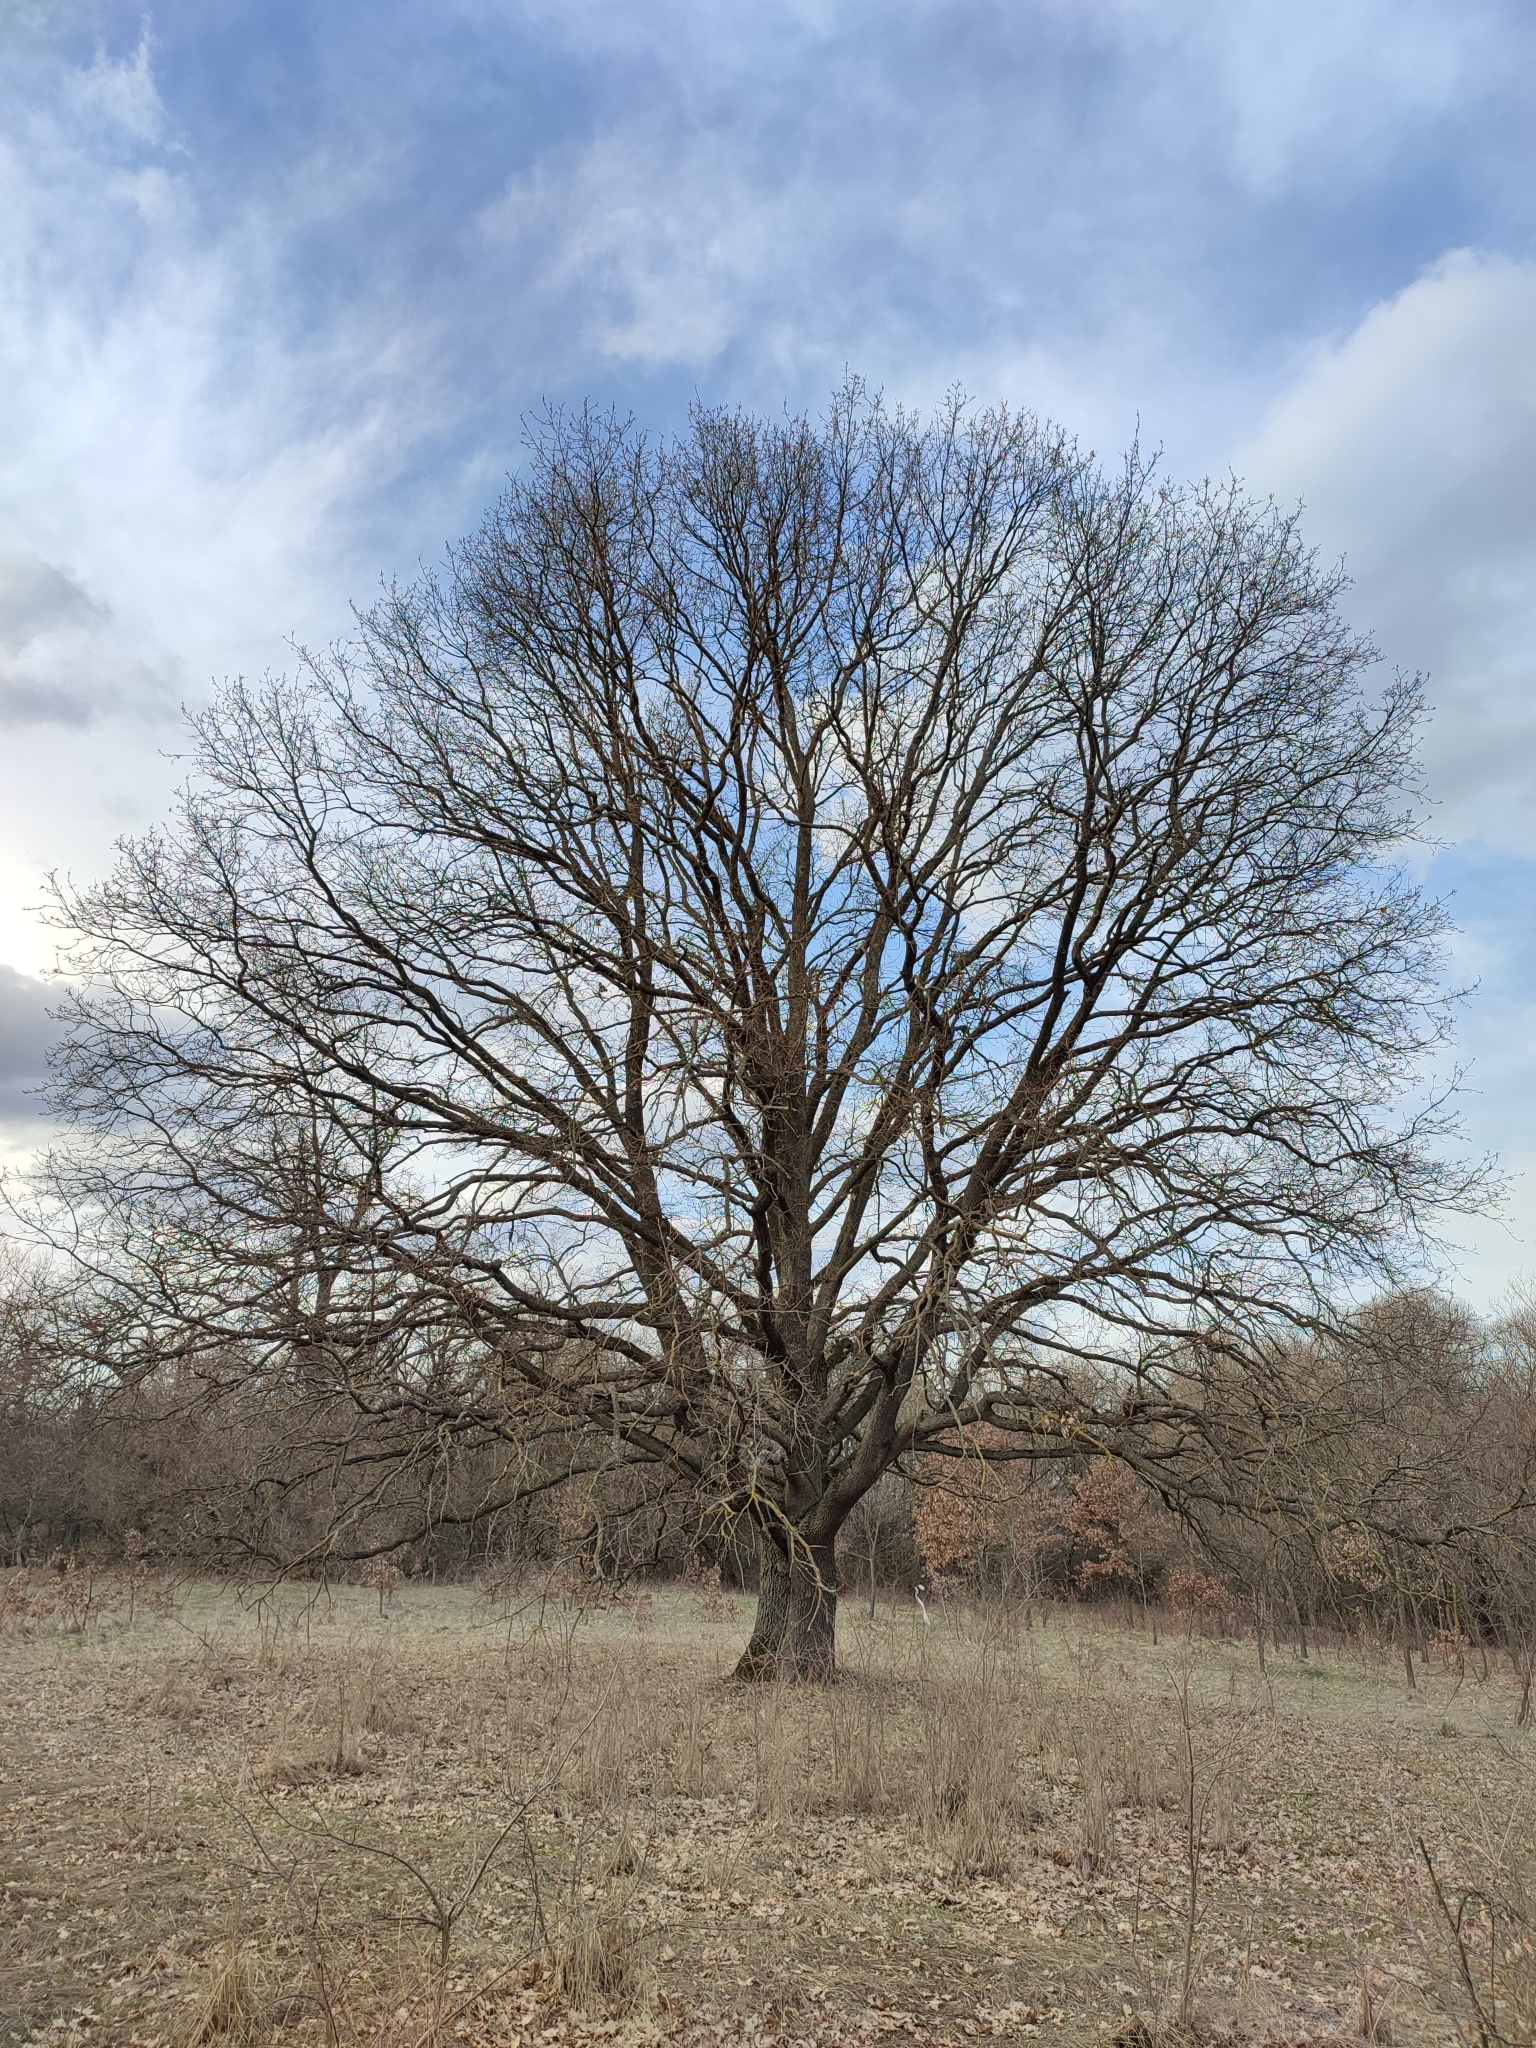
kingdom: Plantae
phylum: Tracheophyta
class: Magnoliopsida
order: Fagales
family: Fagaceae
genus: Quercus
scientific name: Quercus robur
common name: Pedunculate oak
